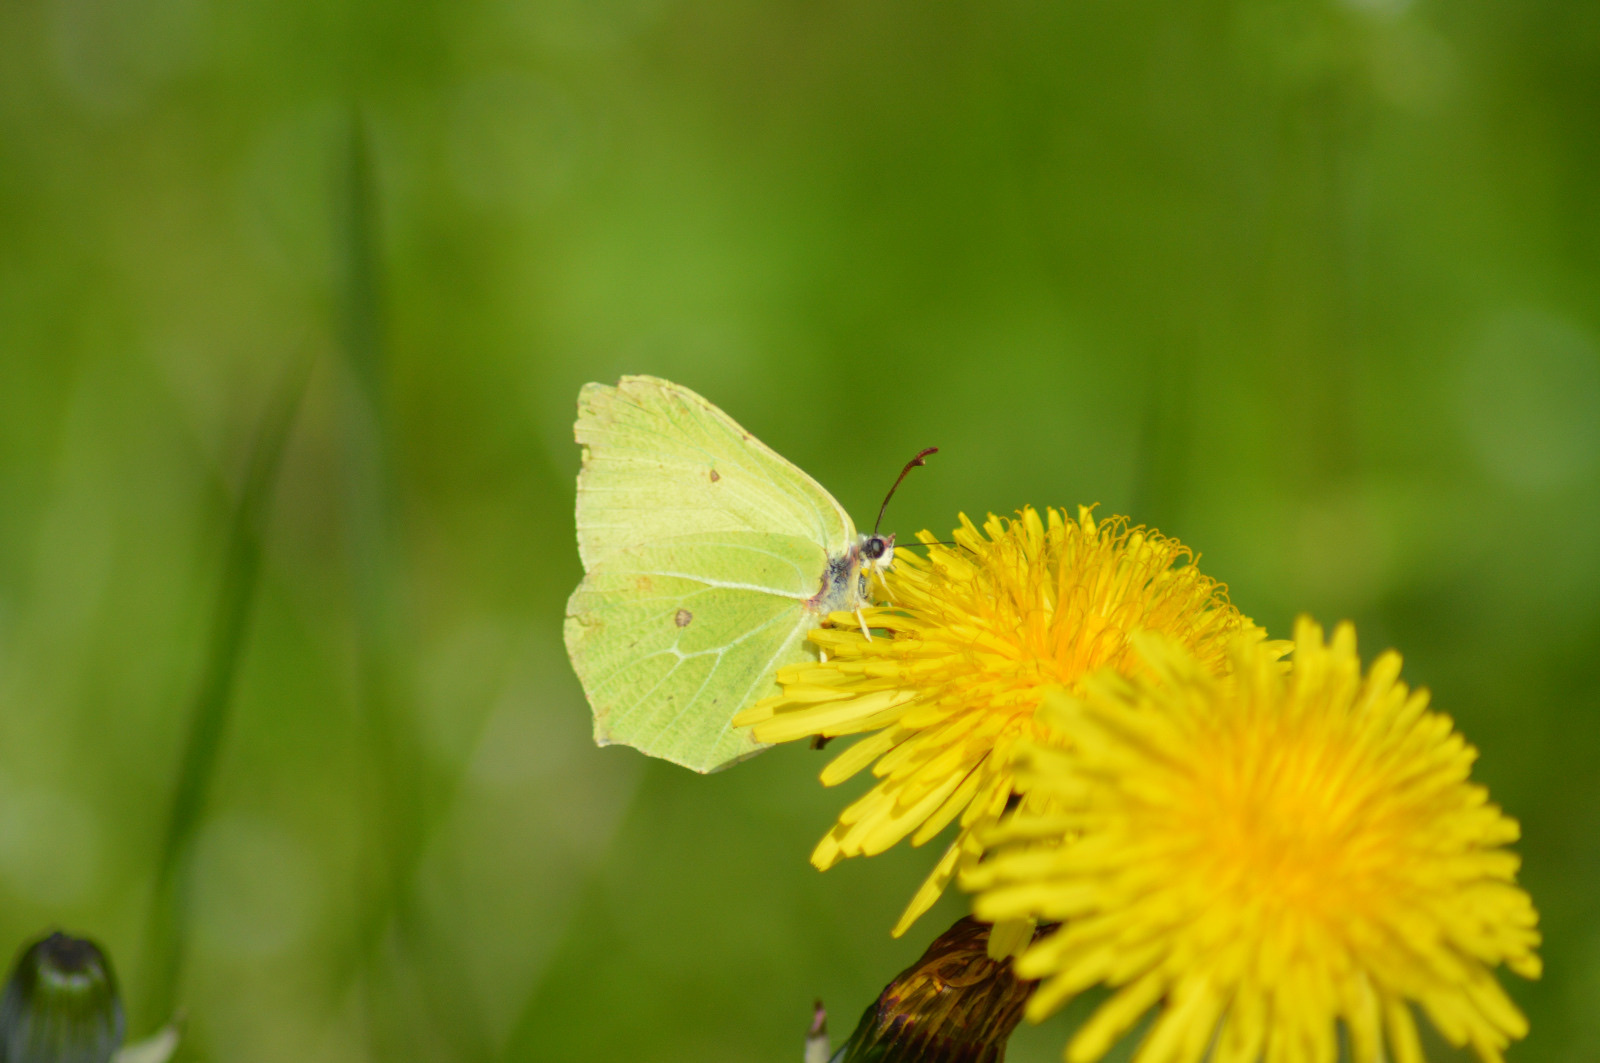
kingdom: Animalia
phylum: Arthropoda
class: Insecta
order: Lepidoptera
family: Pieridae
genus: Gonepteryx
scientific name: Gonepteryx rhamni
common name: Brimstone
